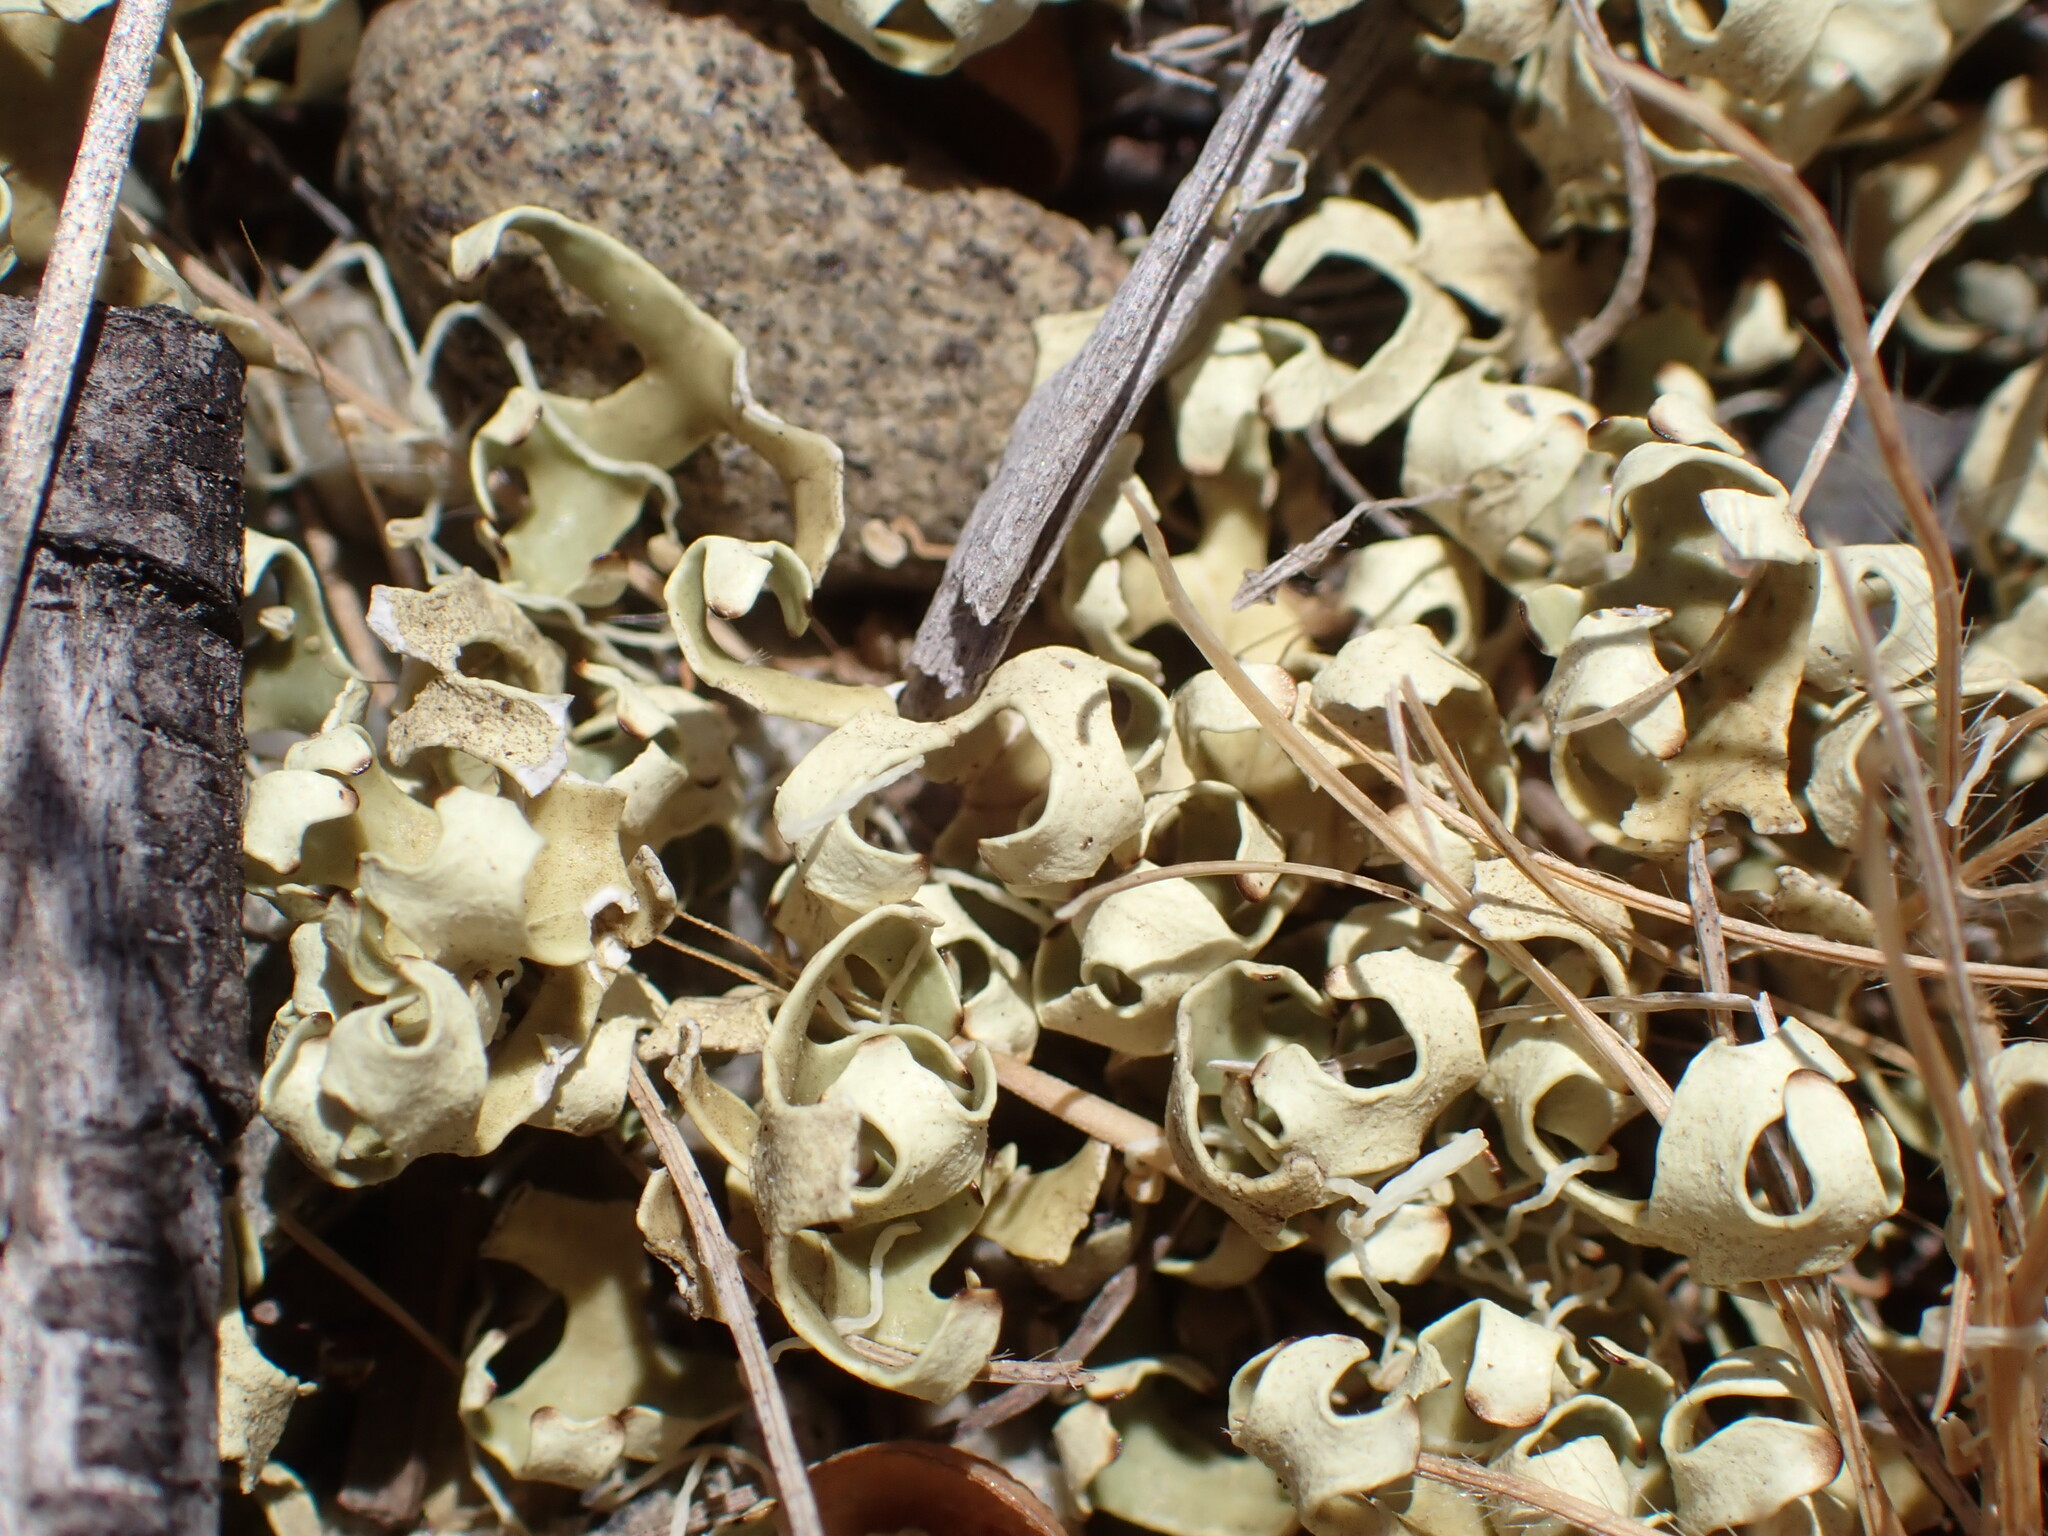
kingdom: Fungi
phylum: Ascomycota
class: Lecanoromycetes
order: Lecanorales
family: Parmeliaceae
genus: Xanthoparmelia
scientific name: Xanthoparmelia semiviridis
